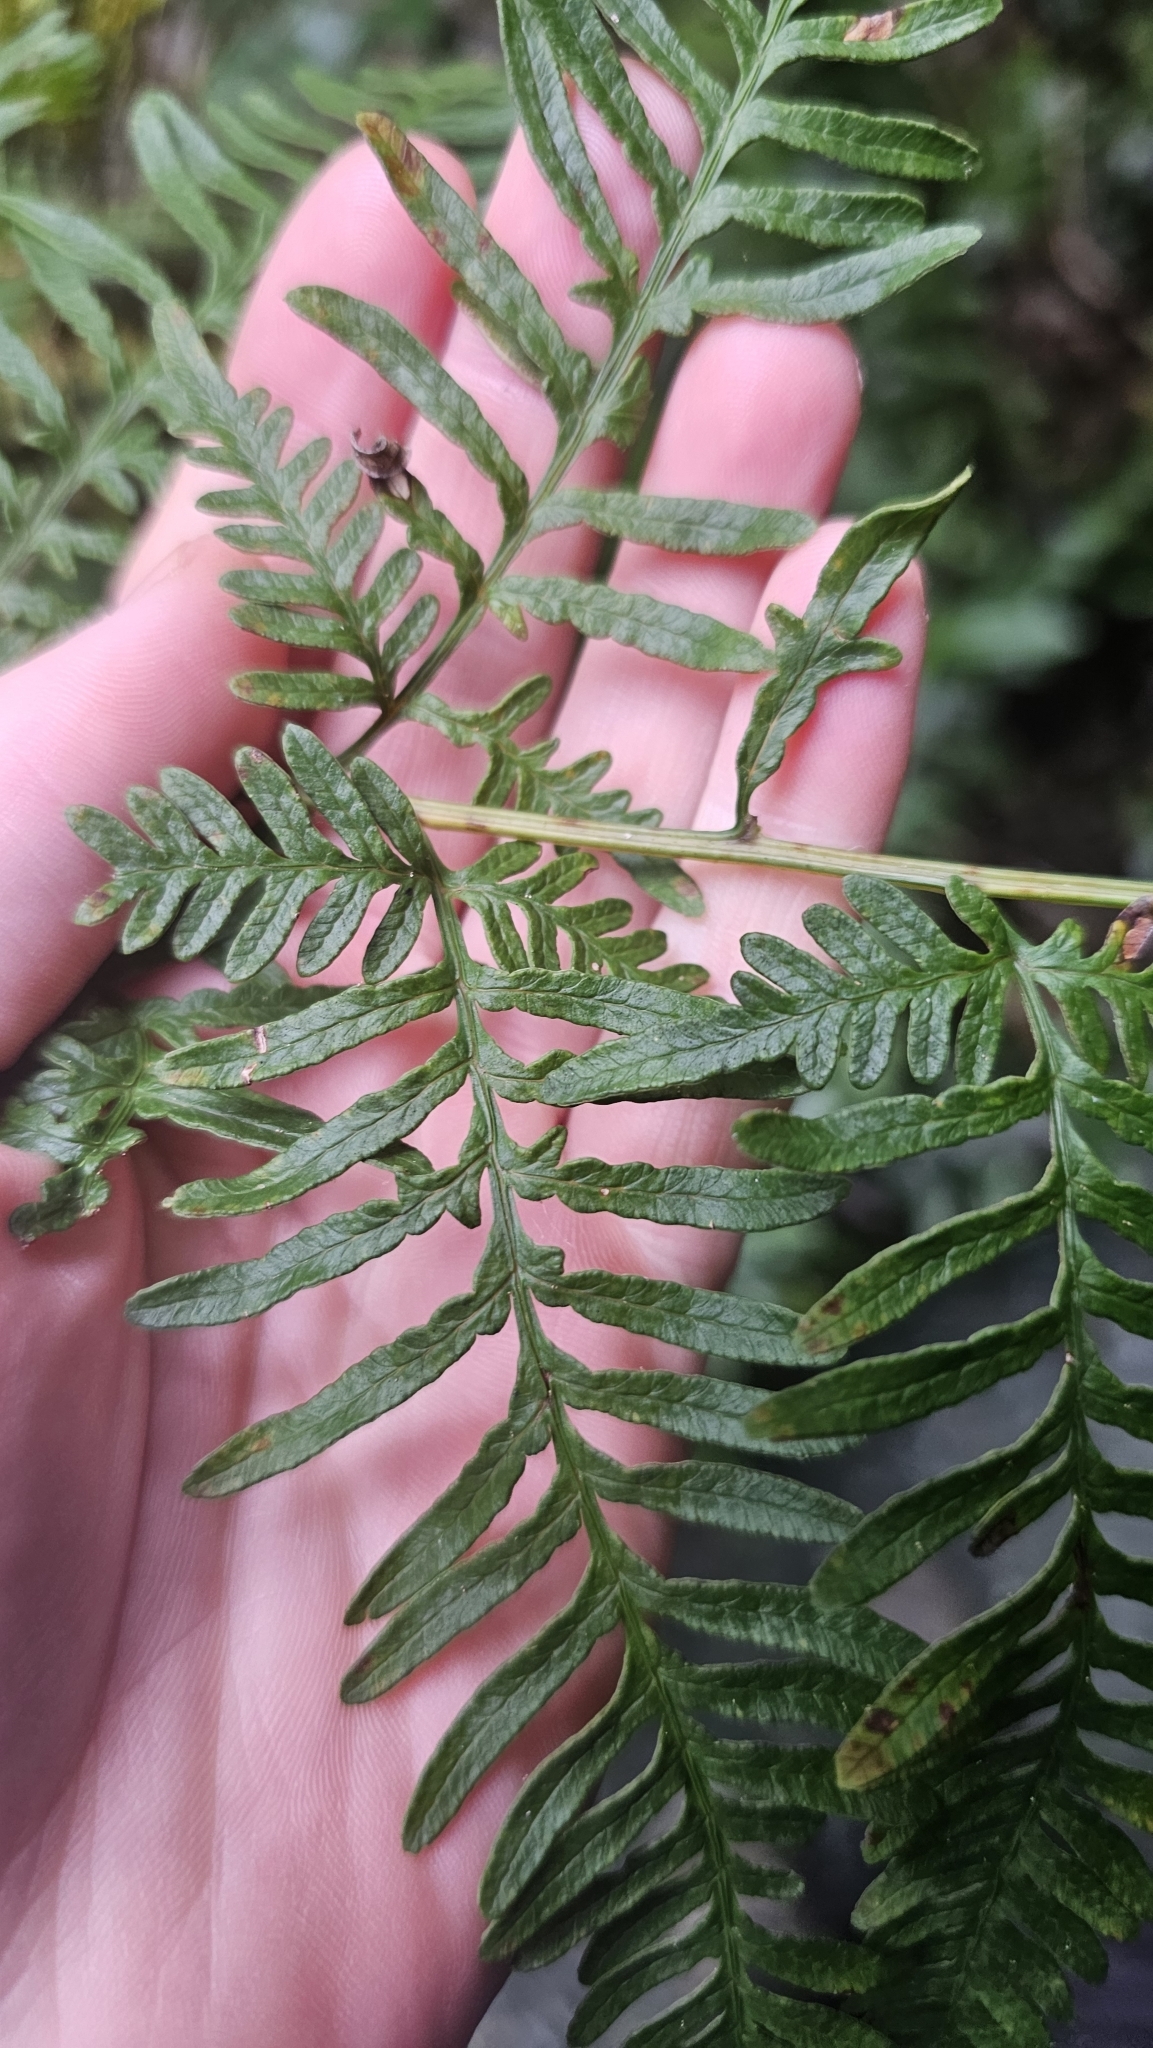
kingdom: Plantae
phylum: Tracheophyta
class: Polypodiopsida
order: Polypodiales
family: Pteridaceae
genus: Pteris
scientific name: Pteris tremula
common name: Australian brake
